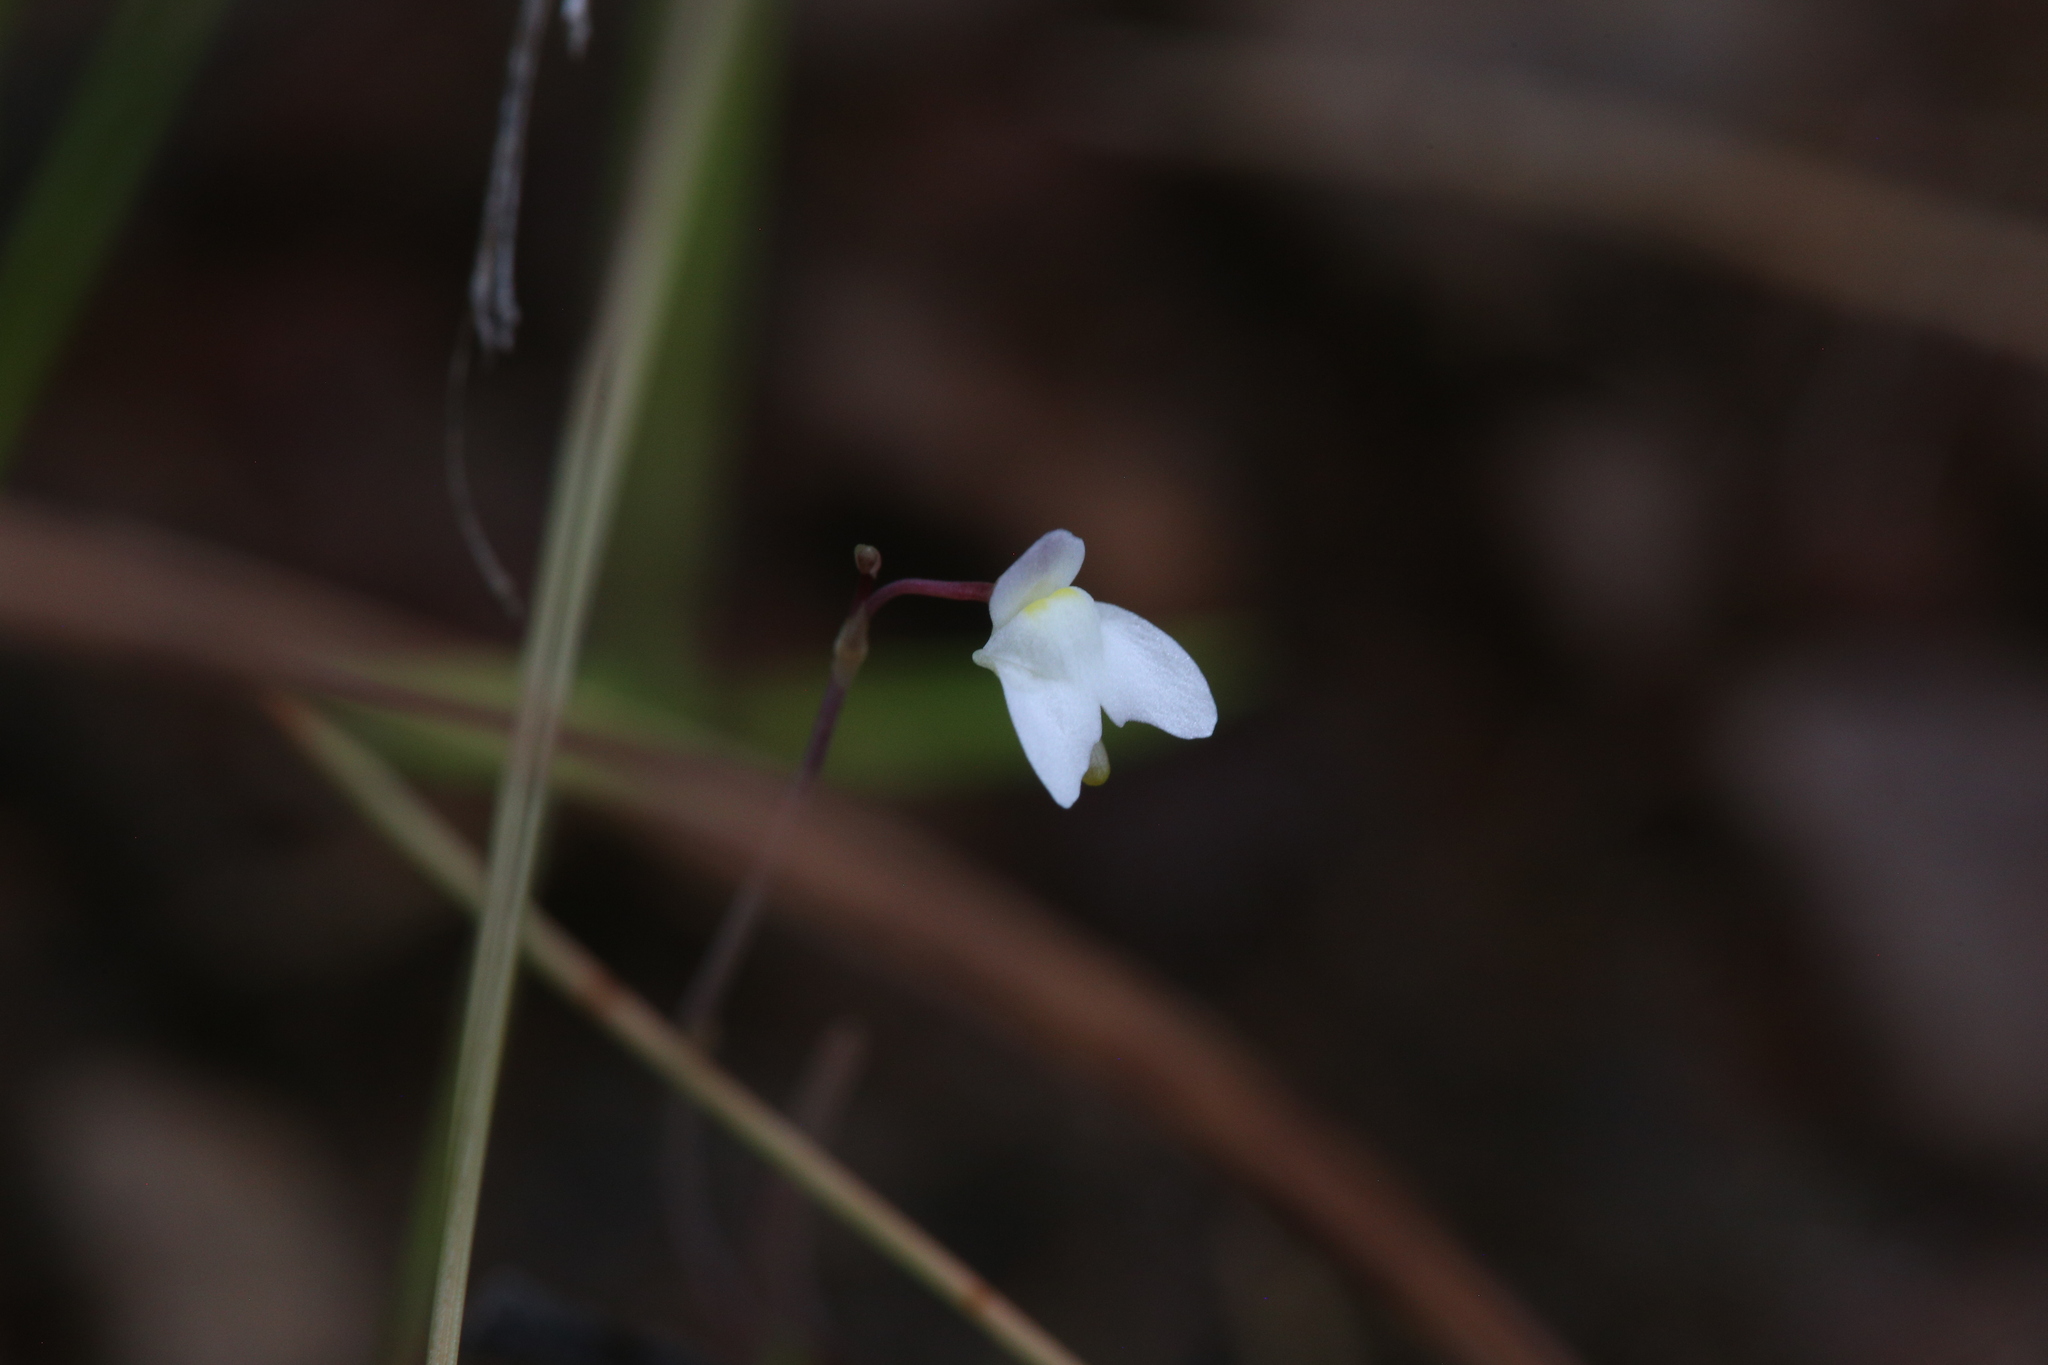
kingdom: Plantae
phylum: Tracheophyta
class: Magnoliopsida
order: Lamiales
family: Lentibulariaceae
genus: Utricularia
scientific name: Utricularia limosa
